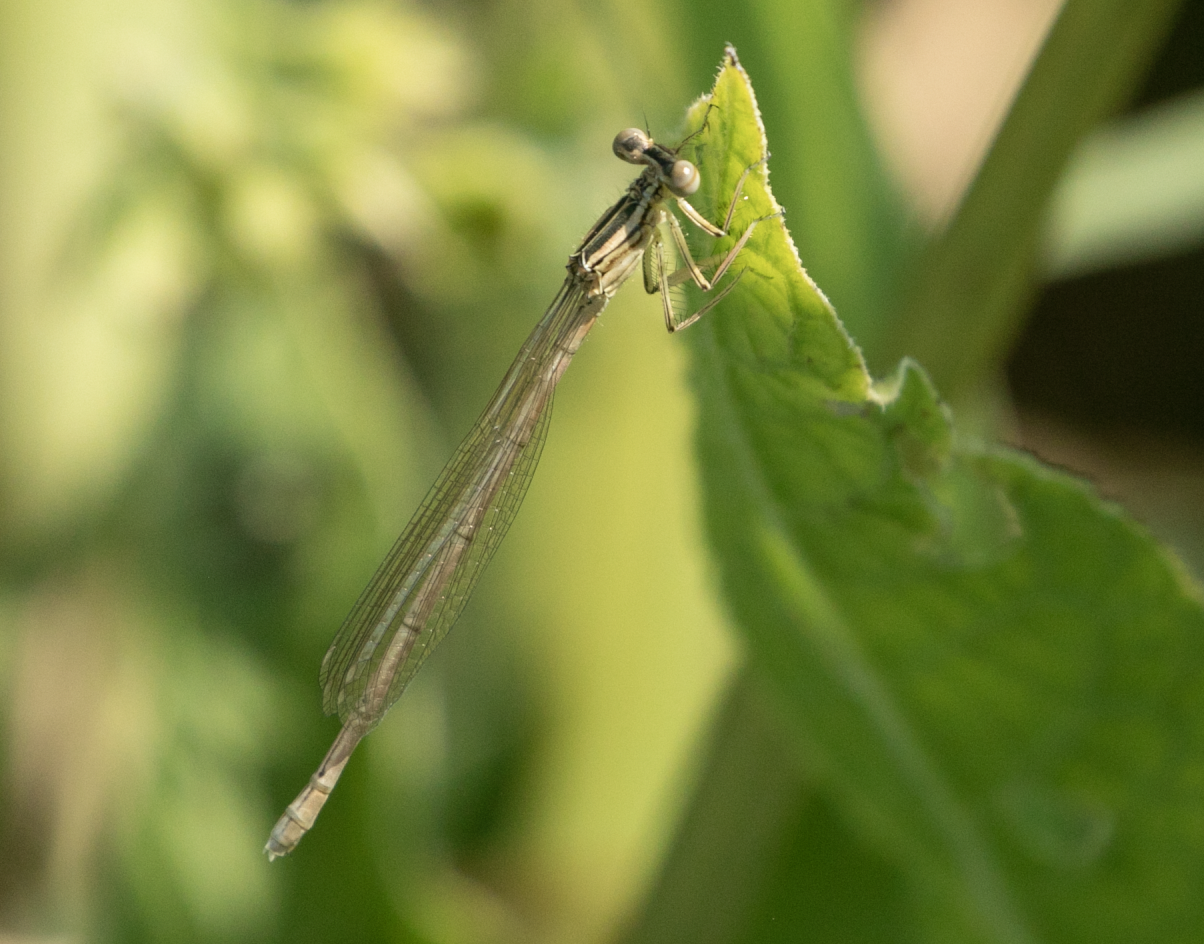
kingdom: Animalia
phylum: Arthropoda
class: Insecta
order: Odonata
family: Platycnemididae
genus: Platycnemis
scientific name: Platycnemis pennipes
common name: White-legged damselfly
